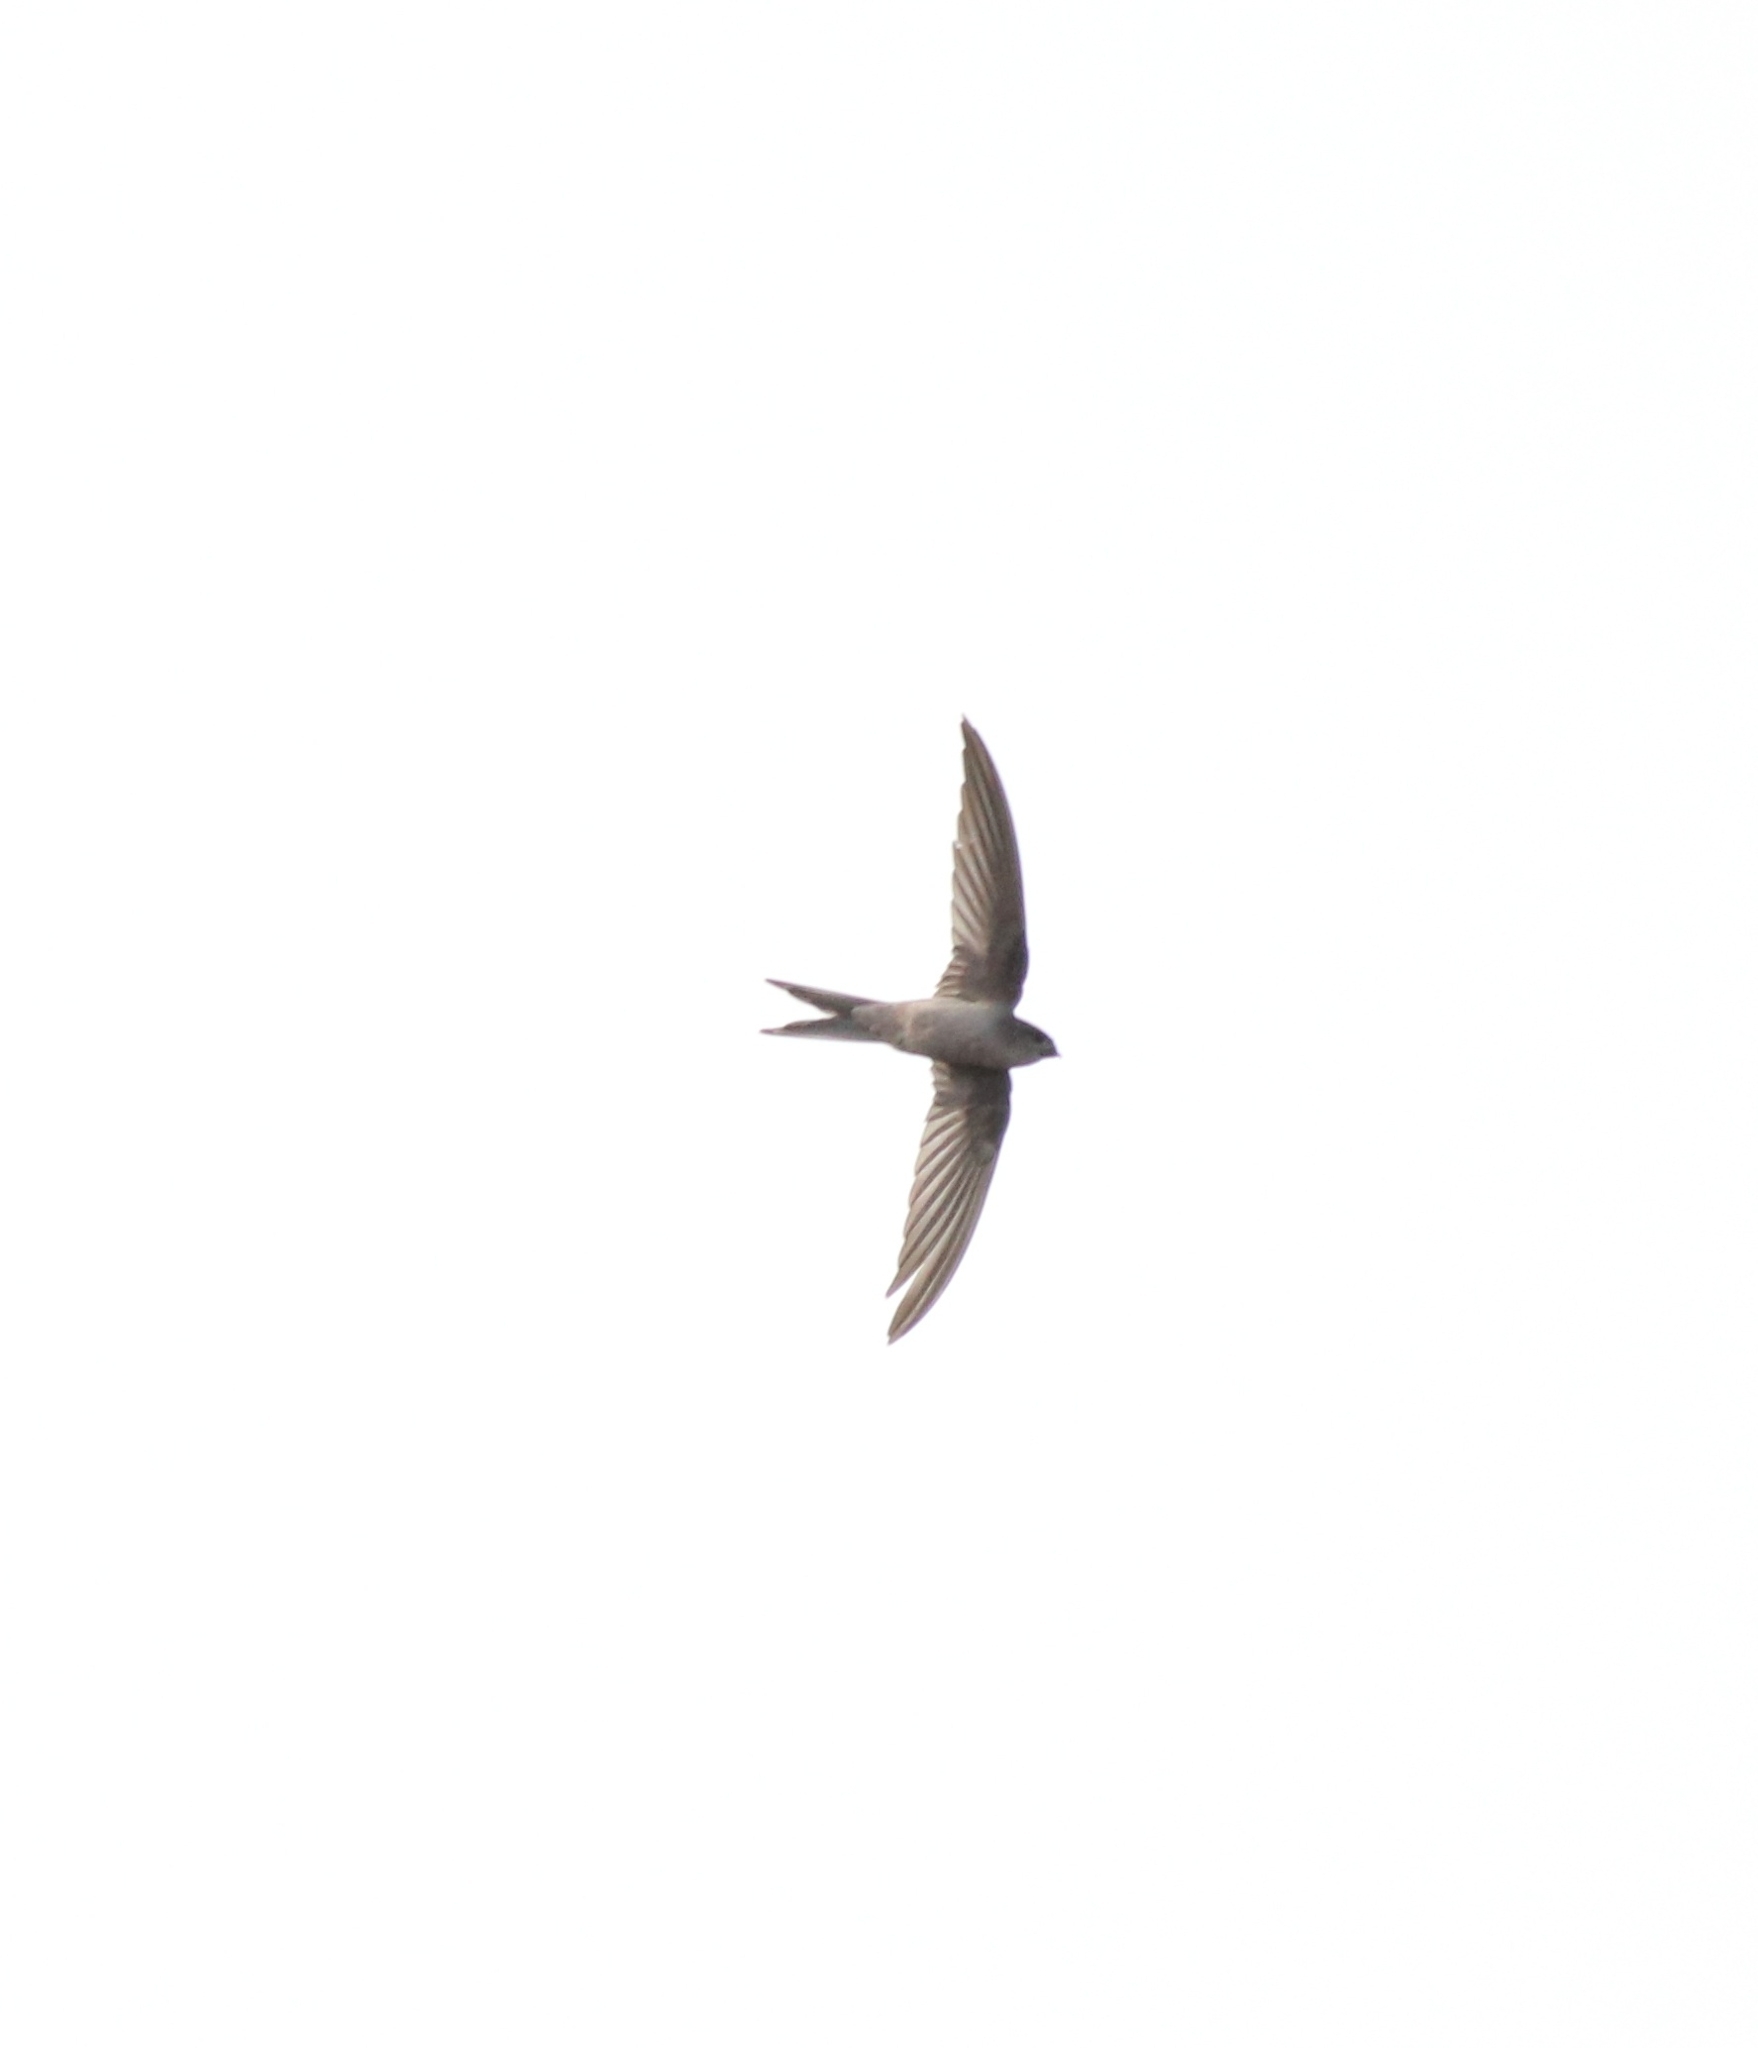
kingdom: Animalia
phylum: Chordata
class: Aves
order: Apodiformes
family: Apodidae
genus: Cypsiurus
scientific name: Cypsiurus balasiensis
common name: Asian palm swift
